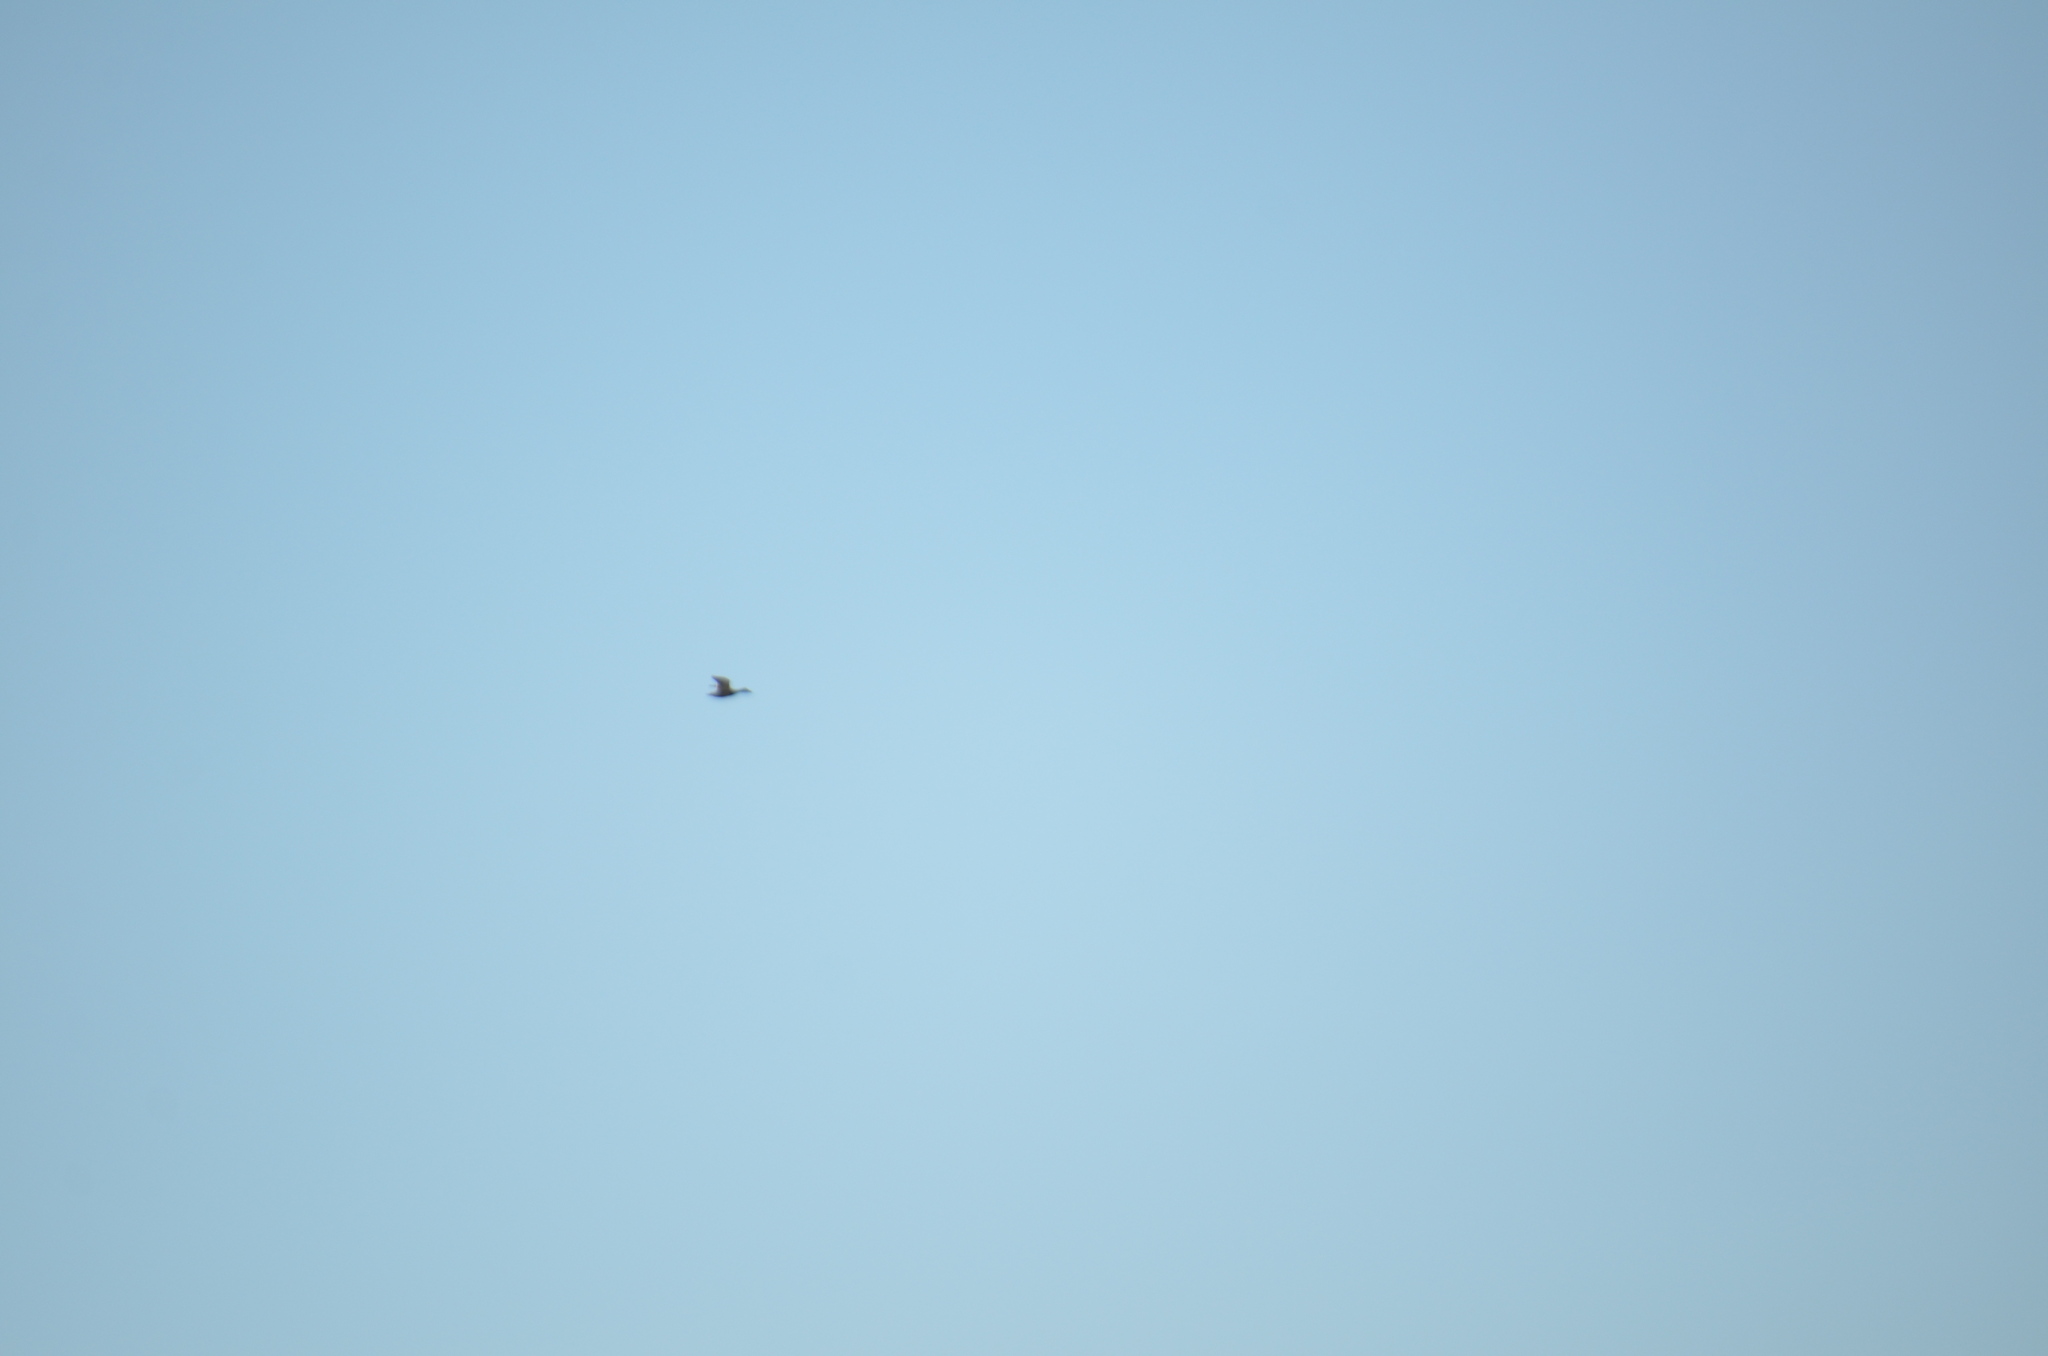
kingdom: Animalia
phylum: Chordata
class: Aves
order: Anseriformes
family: Anatidae
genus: Anas
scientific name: Anas platyrhynchos
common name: Mallard
